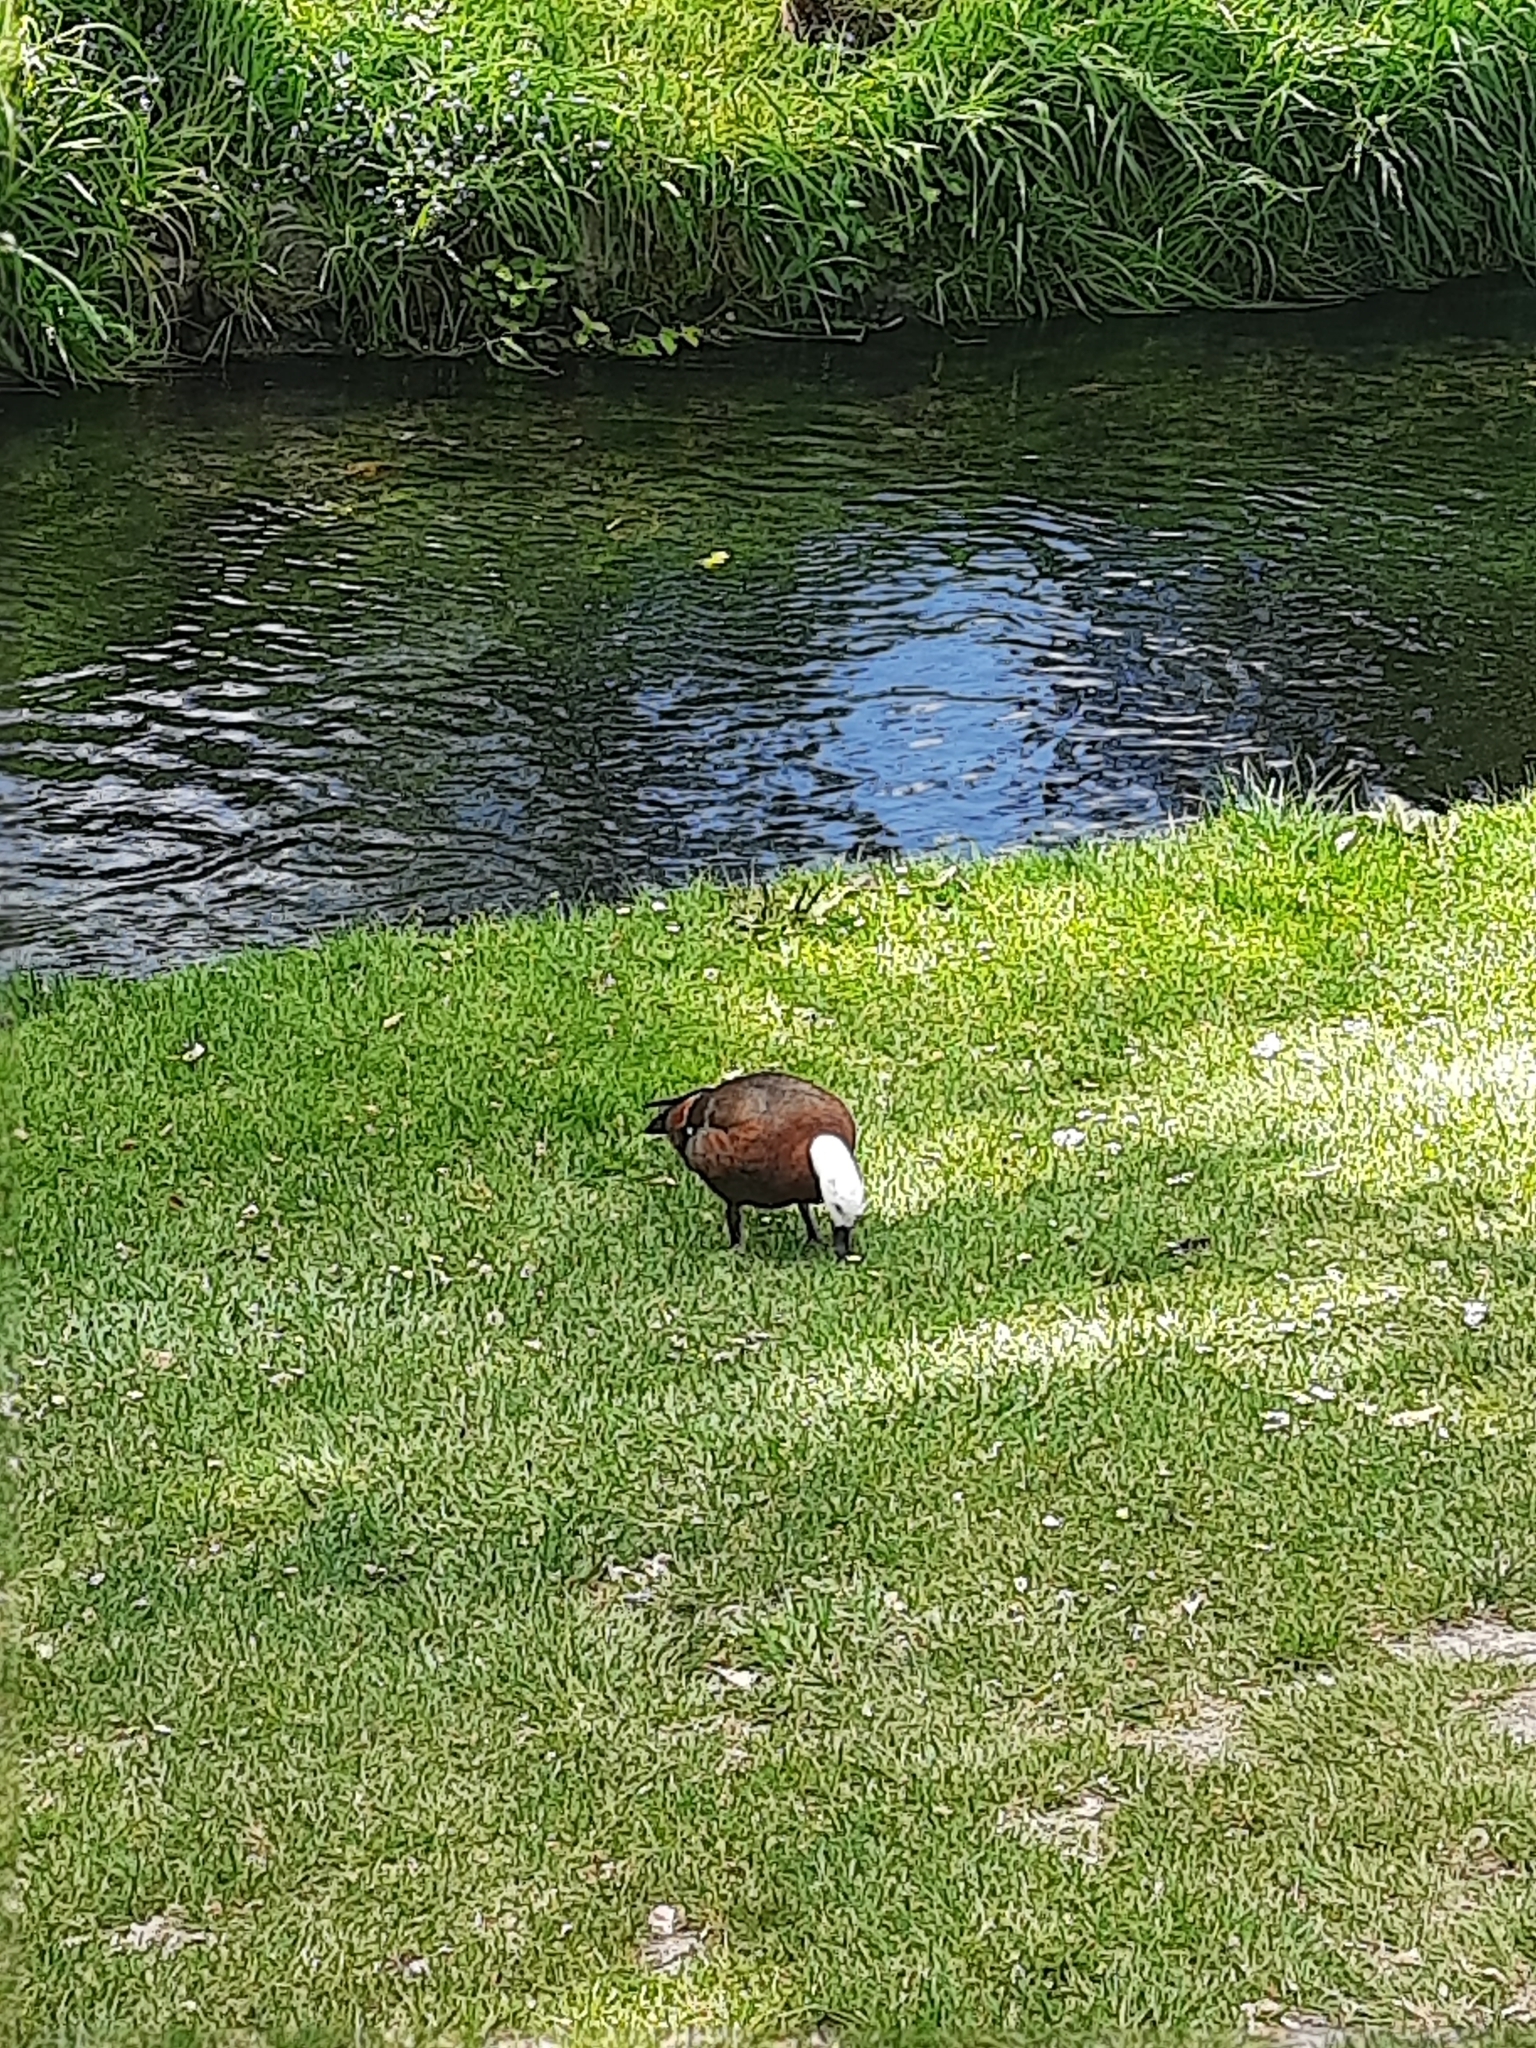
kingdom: Animalia
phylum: Chordata
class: Aves
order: Anseriformes
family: Anatidae
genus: Tadorna
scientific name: Tadorna variegata
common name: Paradise shelduck
